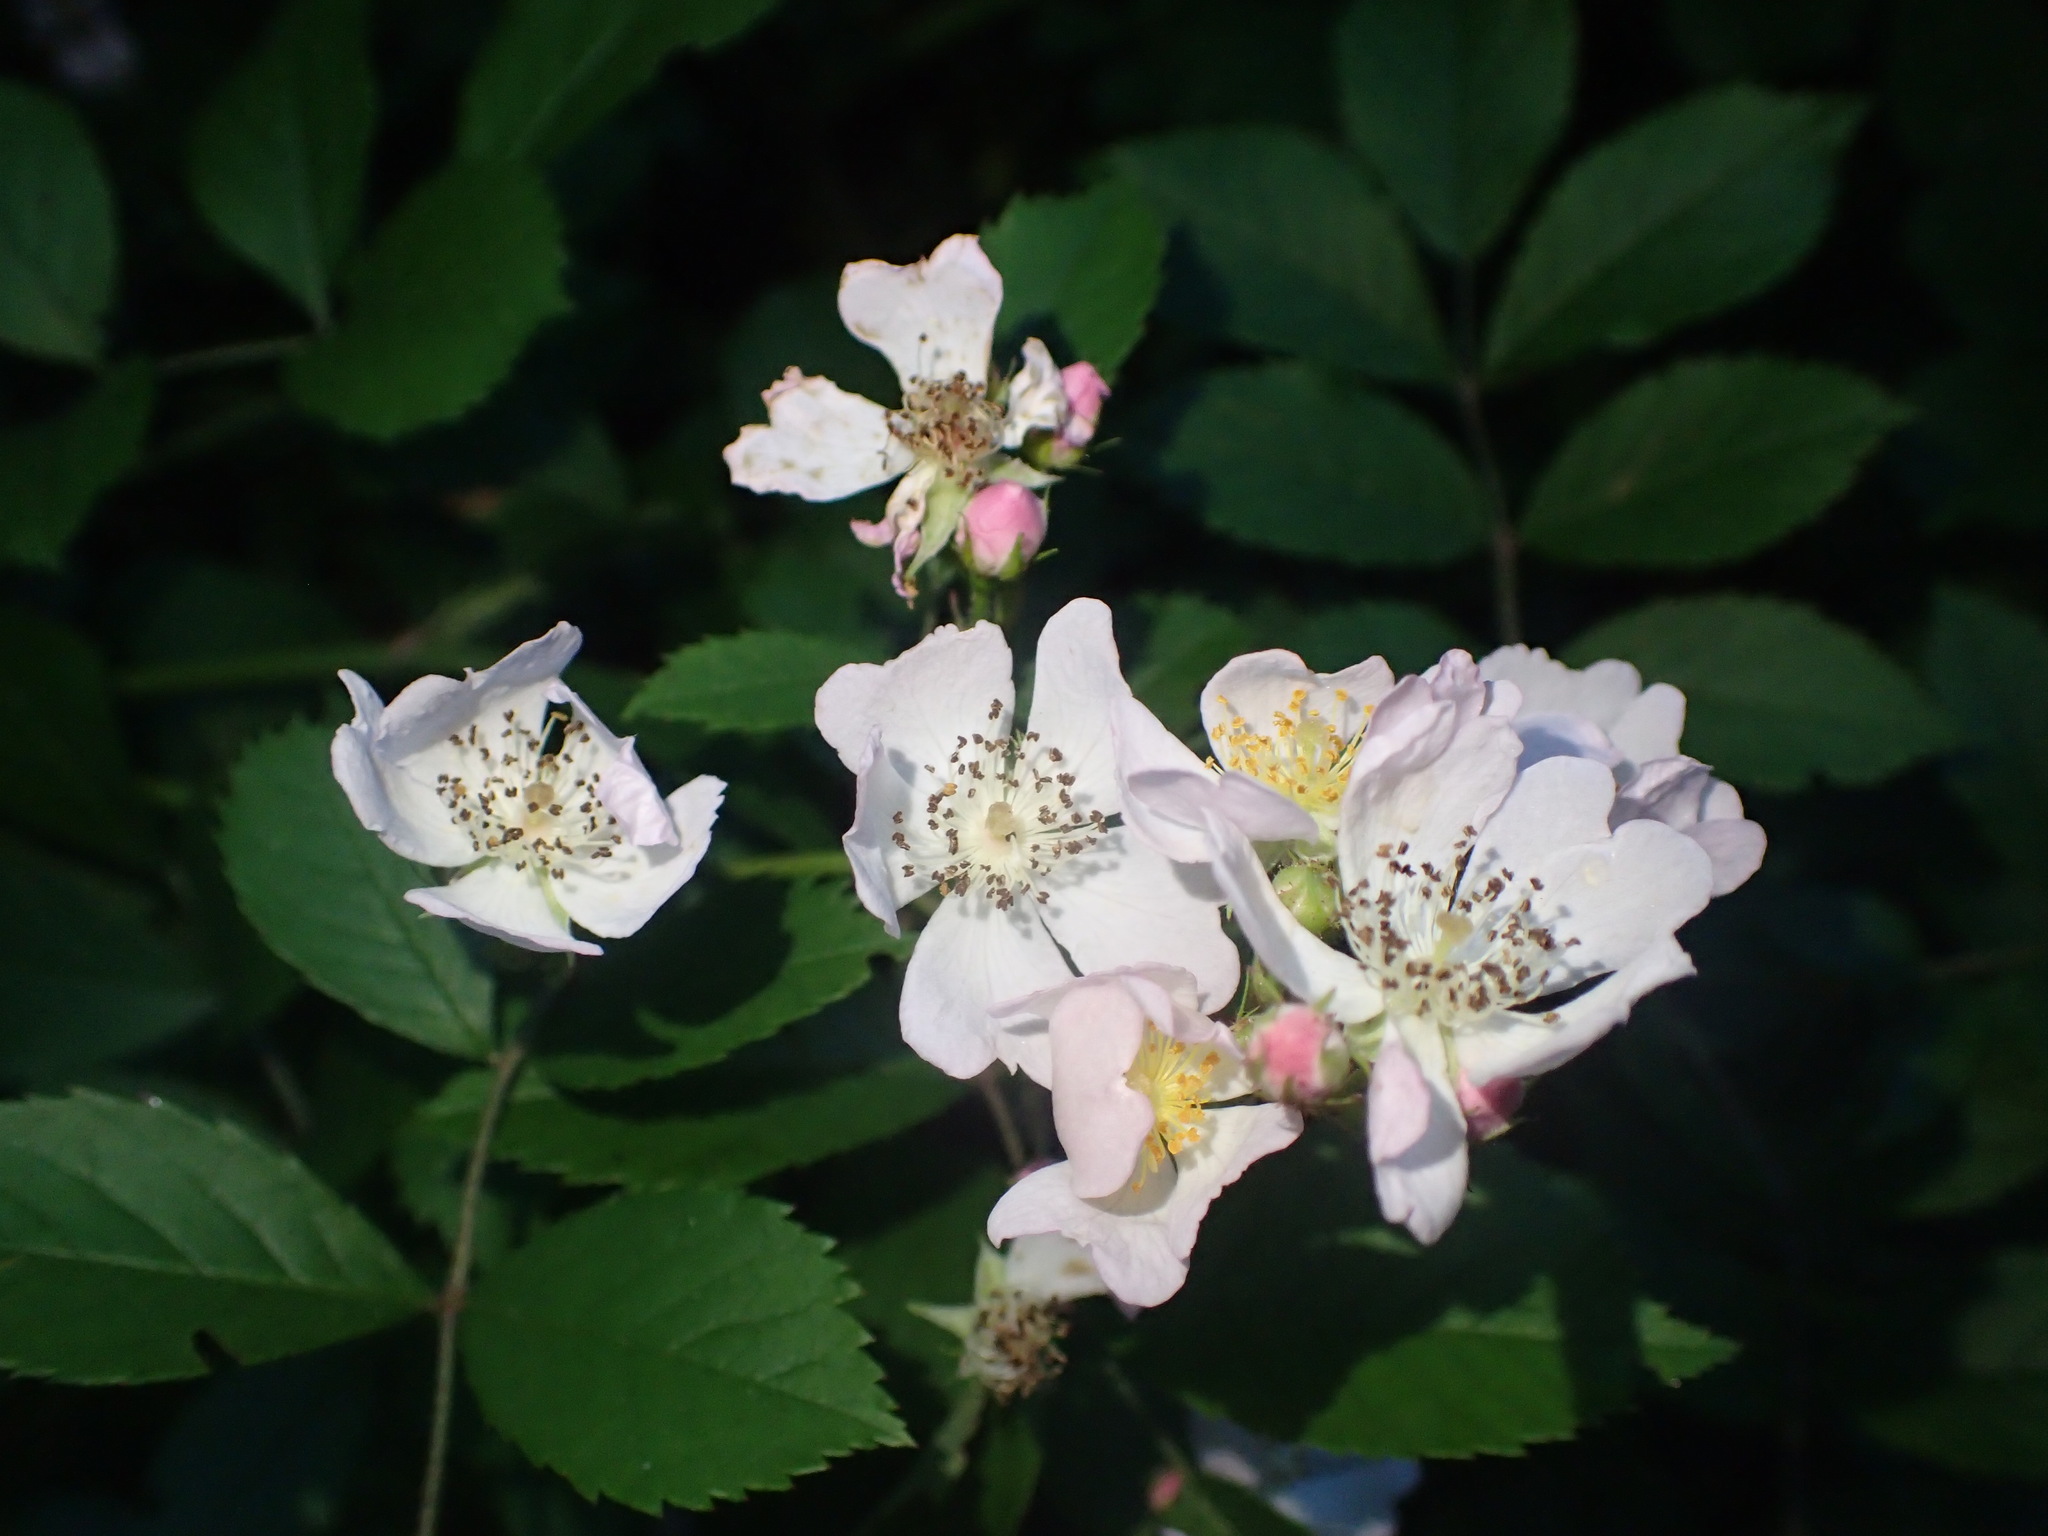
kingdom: Plantae
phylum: Tracheophyta
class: Magnoliopsida
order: Rosales
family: Rosaceae
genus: Rosa
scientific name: Rosa multiflora
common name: Multiflora rose
